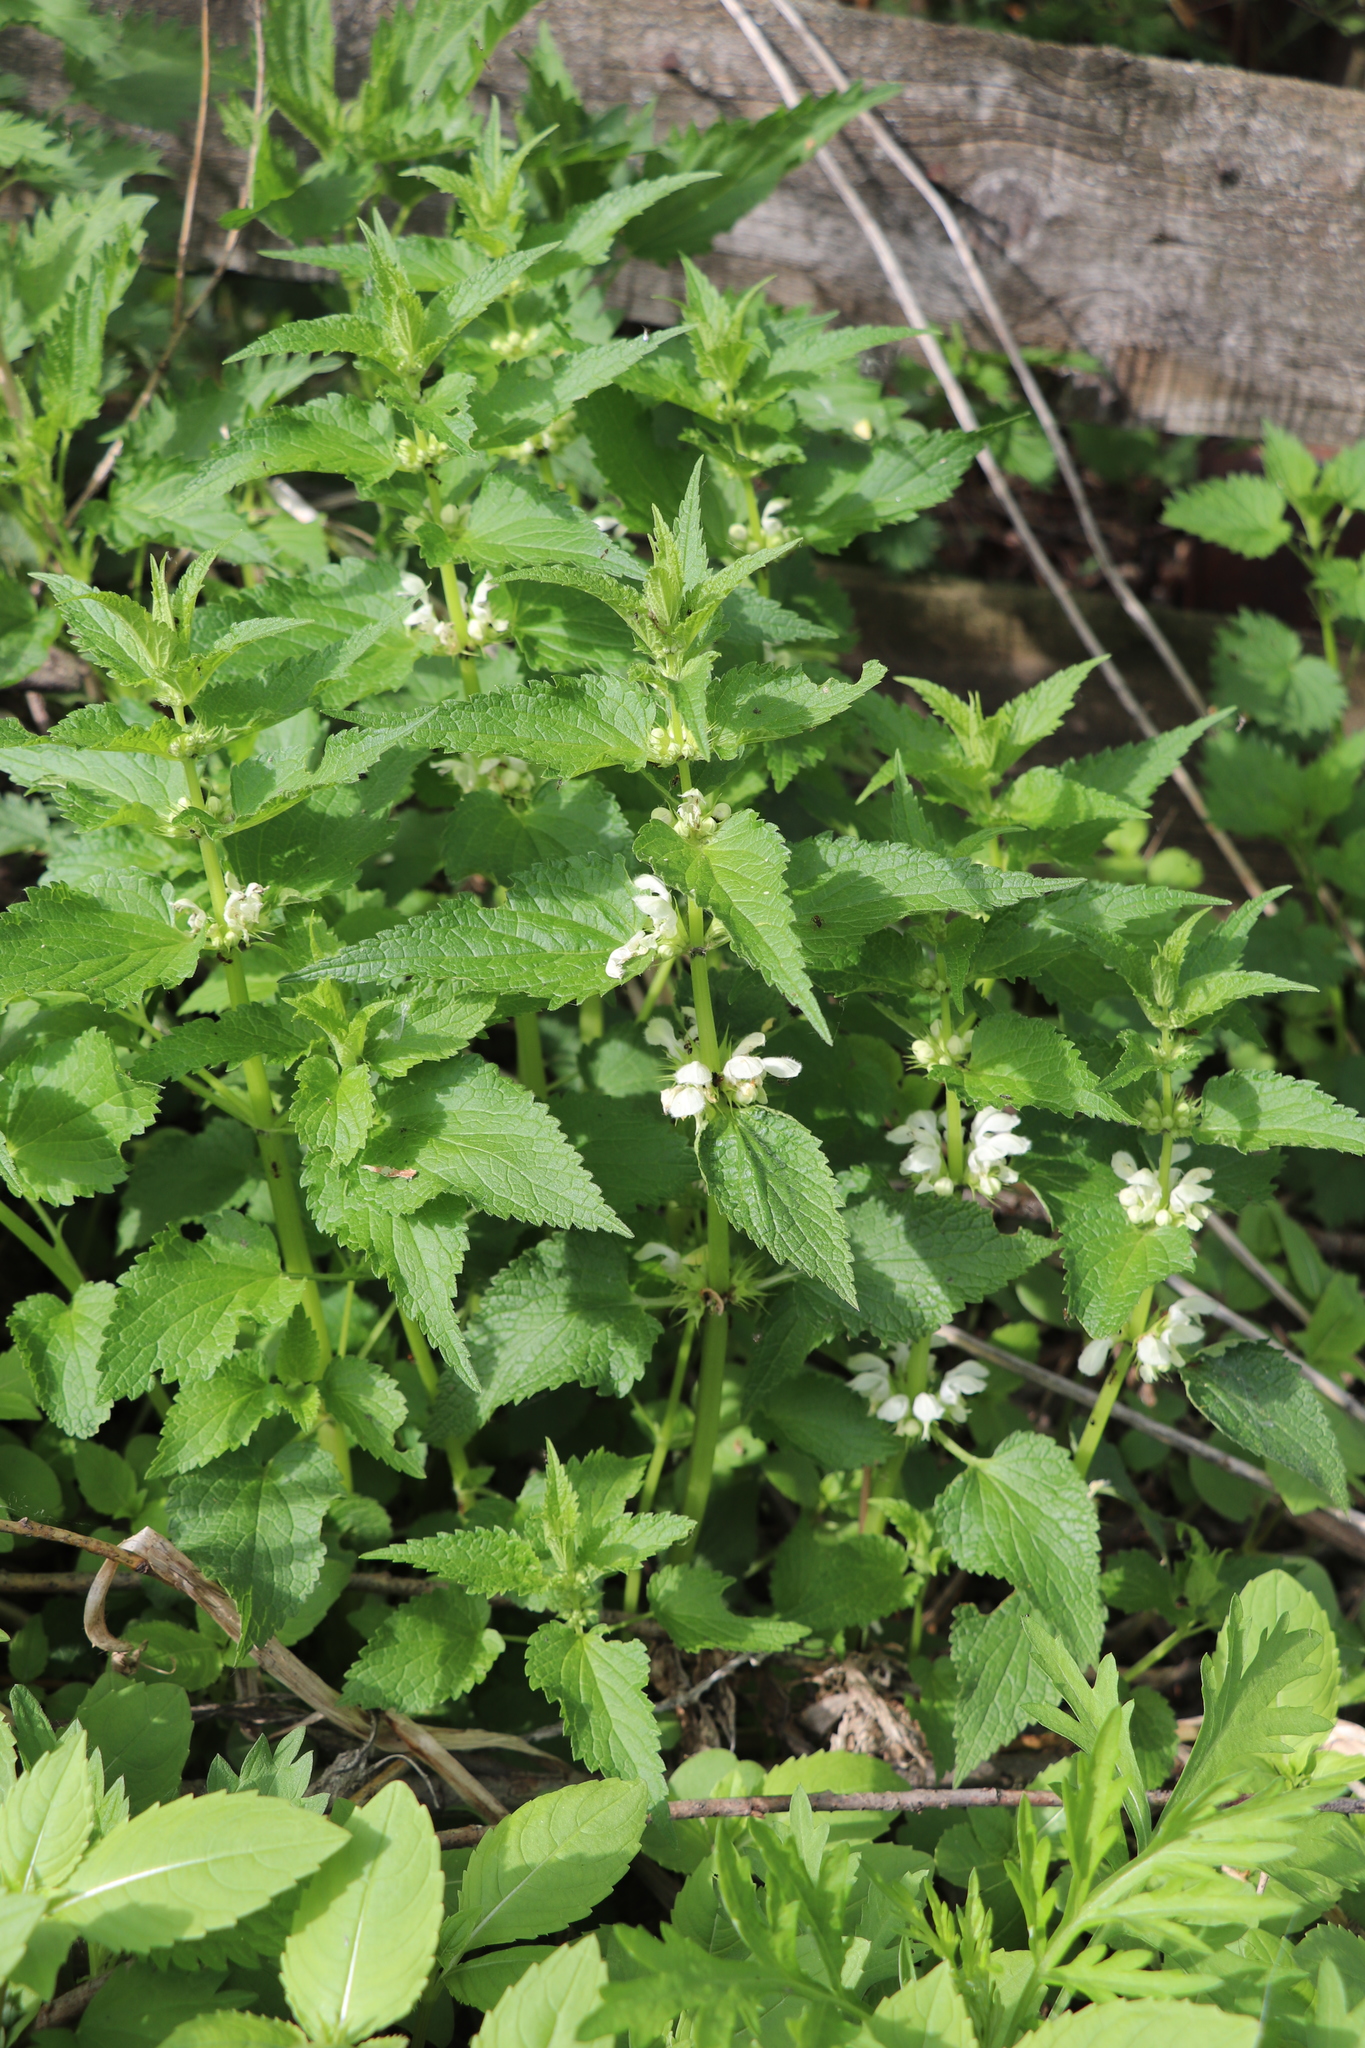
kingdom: Plantae
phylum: Tracheophyta
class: Magnoliopsida
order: Lamiales
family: Lamiaceae
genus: Lamium
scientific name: Lamium album
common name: White dead-nettle
